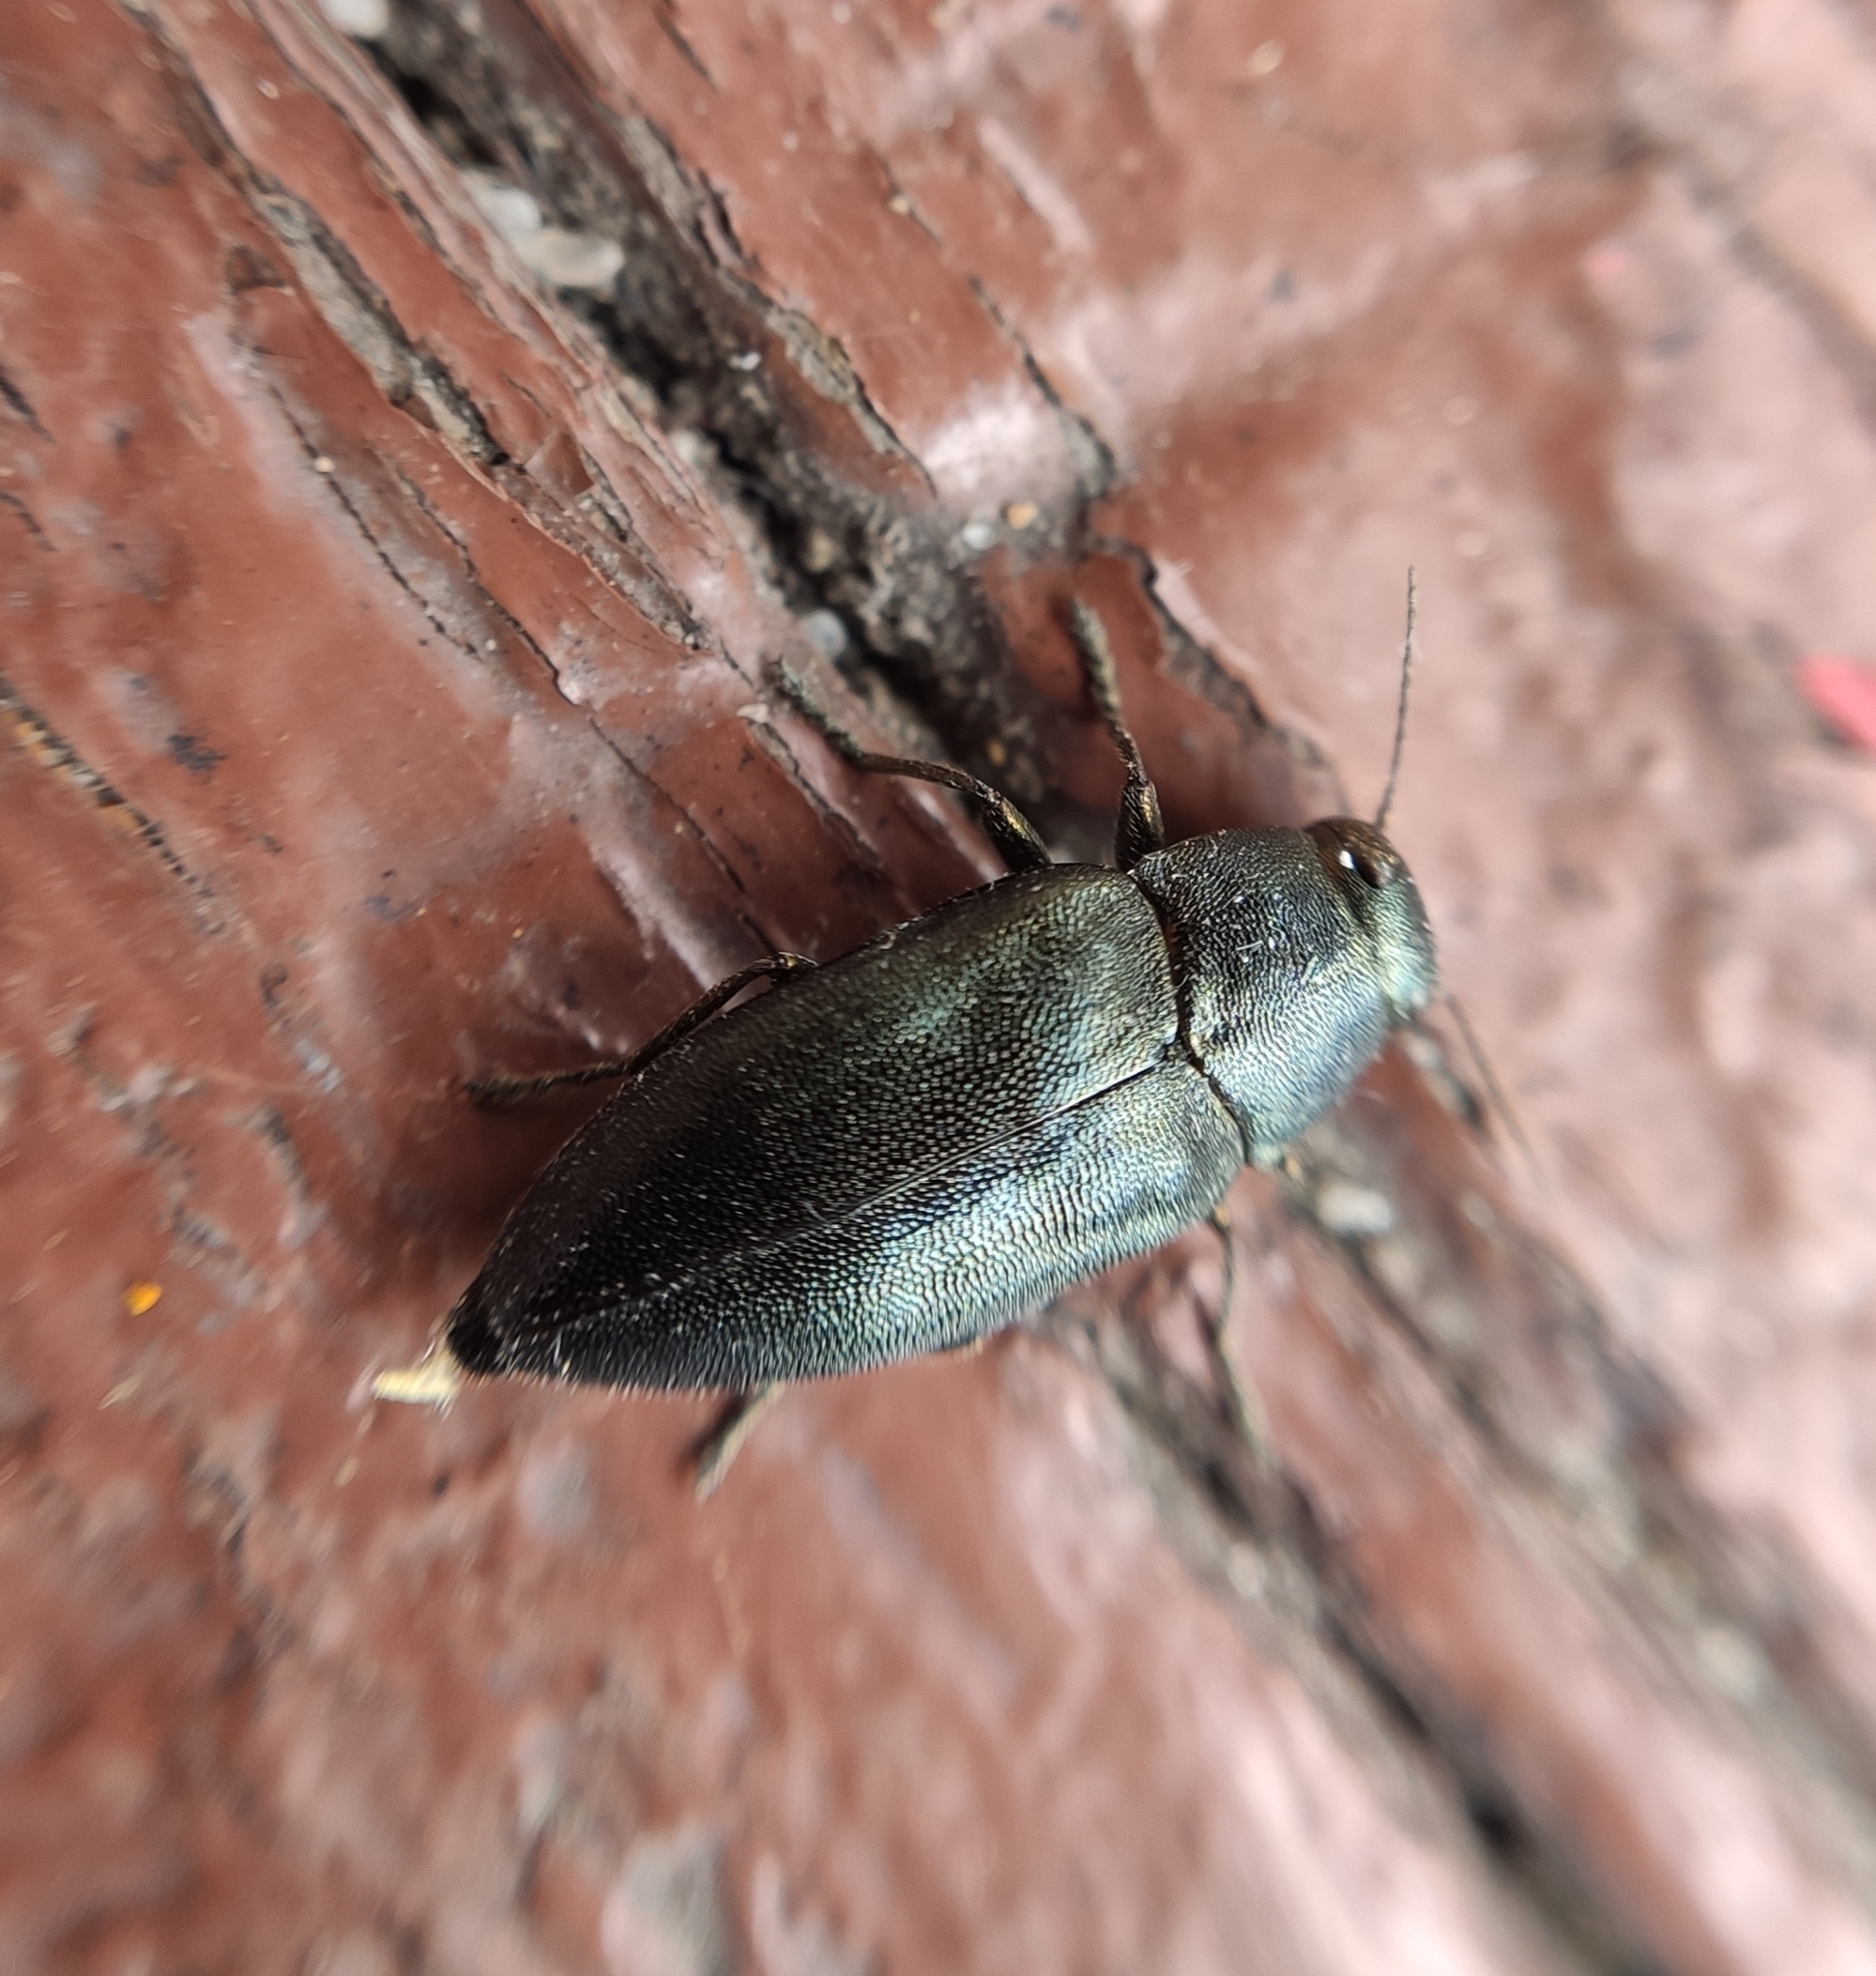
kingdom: Animalia
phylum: Arthropoda
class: Insecta
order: Coleoptera
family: Buprestidae
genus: Phaenops
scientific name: Phaenops cyanea
